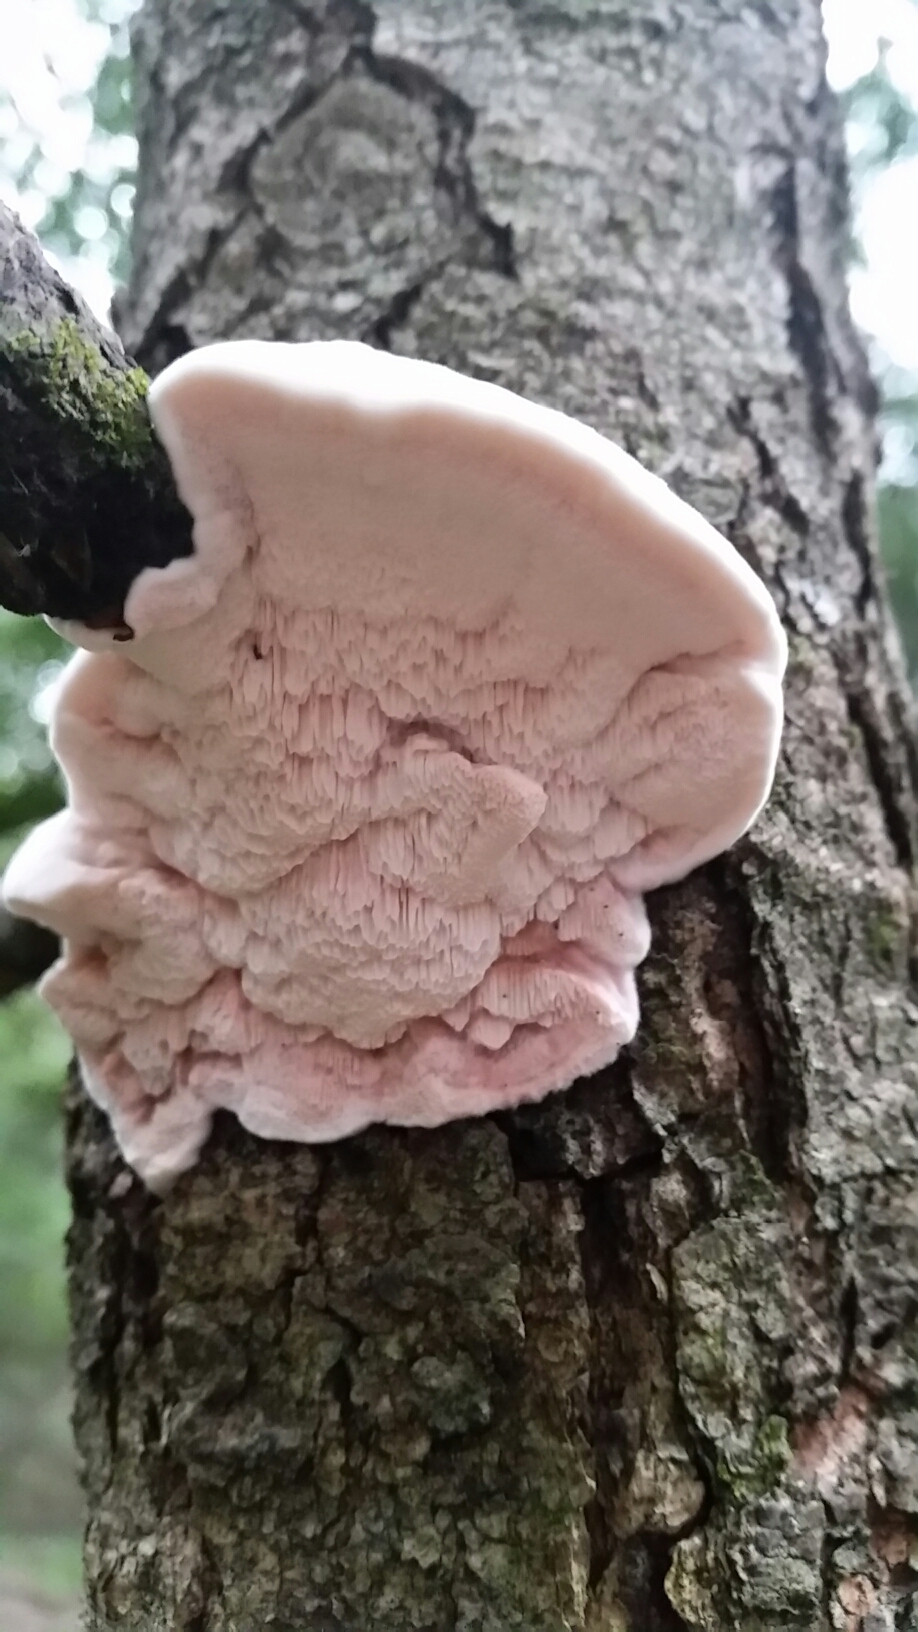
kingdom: Fungi
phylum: Basidiomycota
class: Agaricomycetes
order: Polyporales
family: Irpicaceae
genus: Leptoporus
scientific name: Leptoporus mollis
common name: Soft bracket
